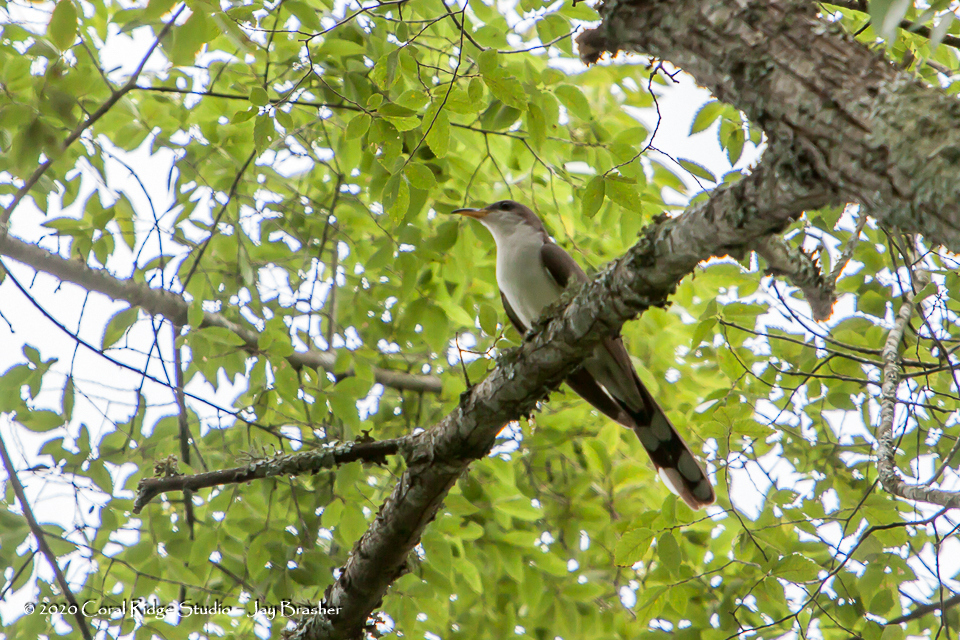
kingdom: Animalia
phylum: Chordata
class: Aves
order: Cuculiformes
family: Cuculidae
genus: Coccyzus
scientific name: Coccyzus americanus
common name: Yellow-billed cuckoo
